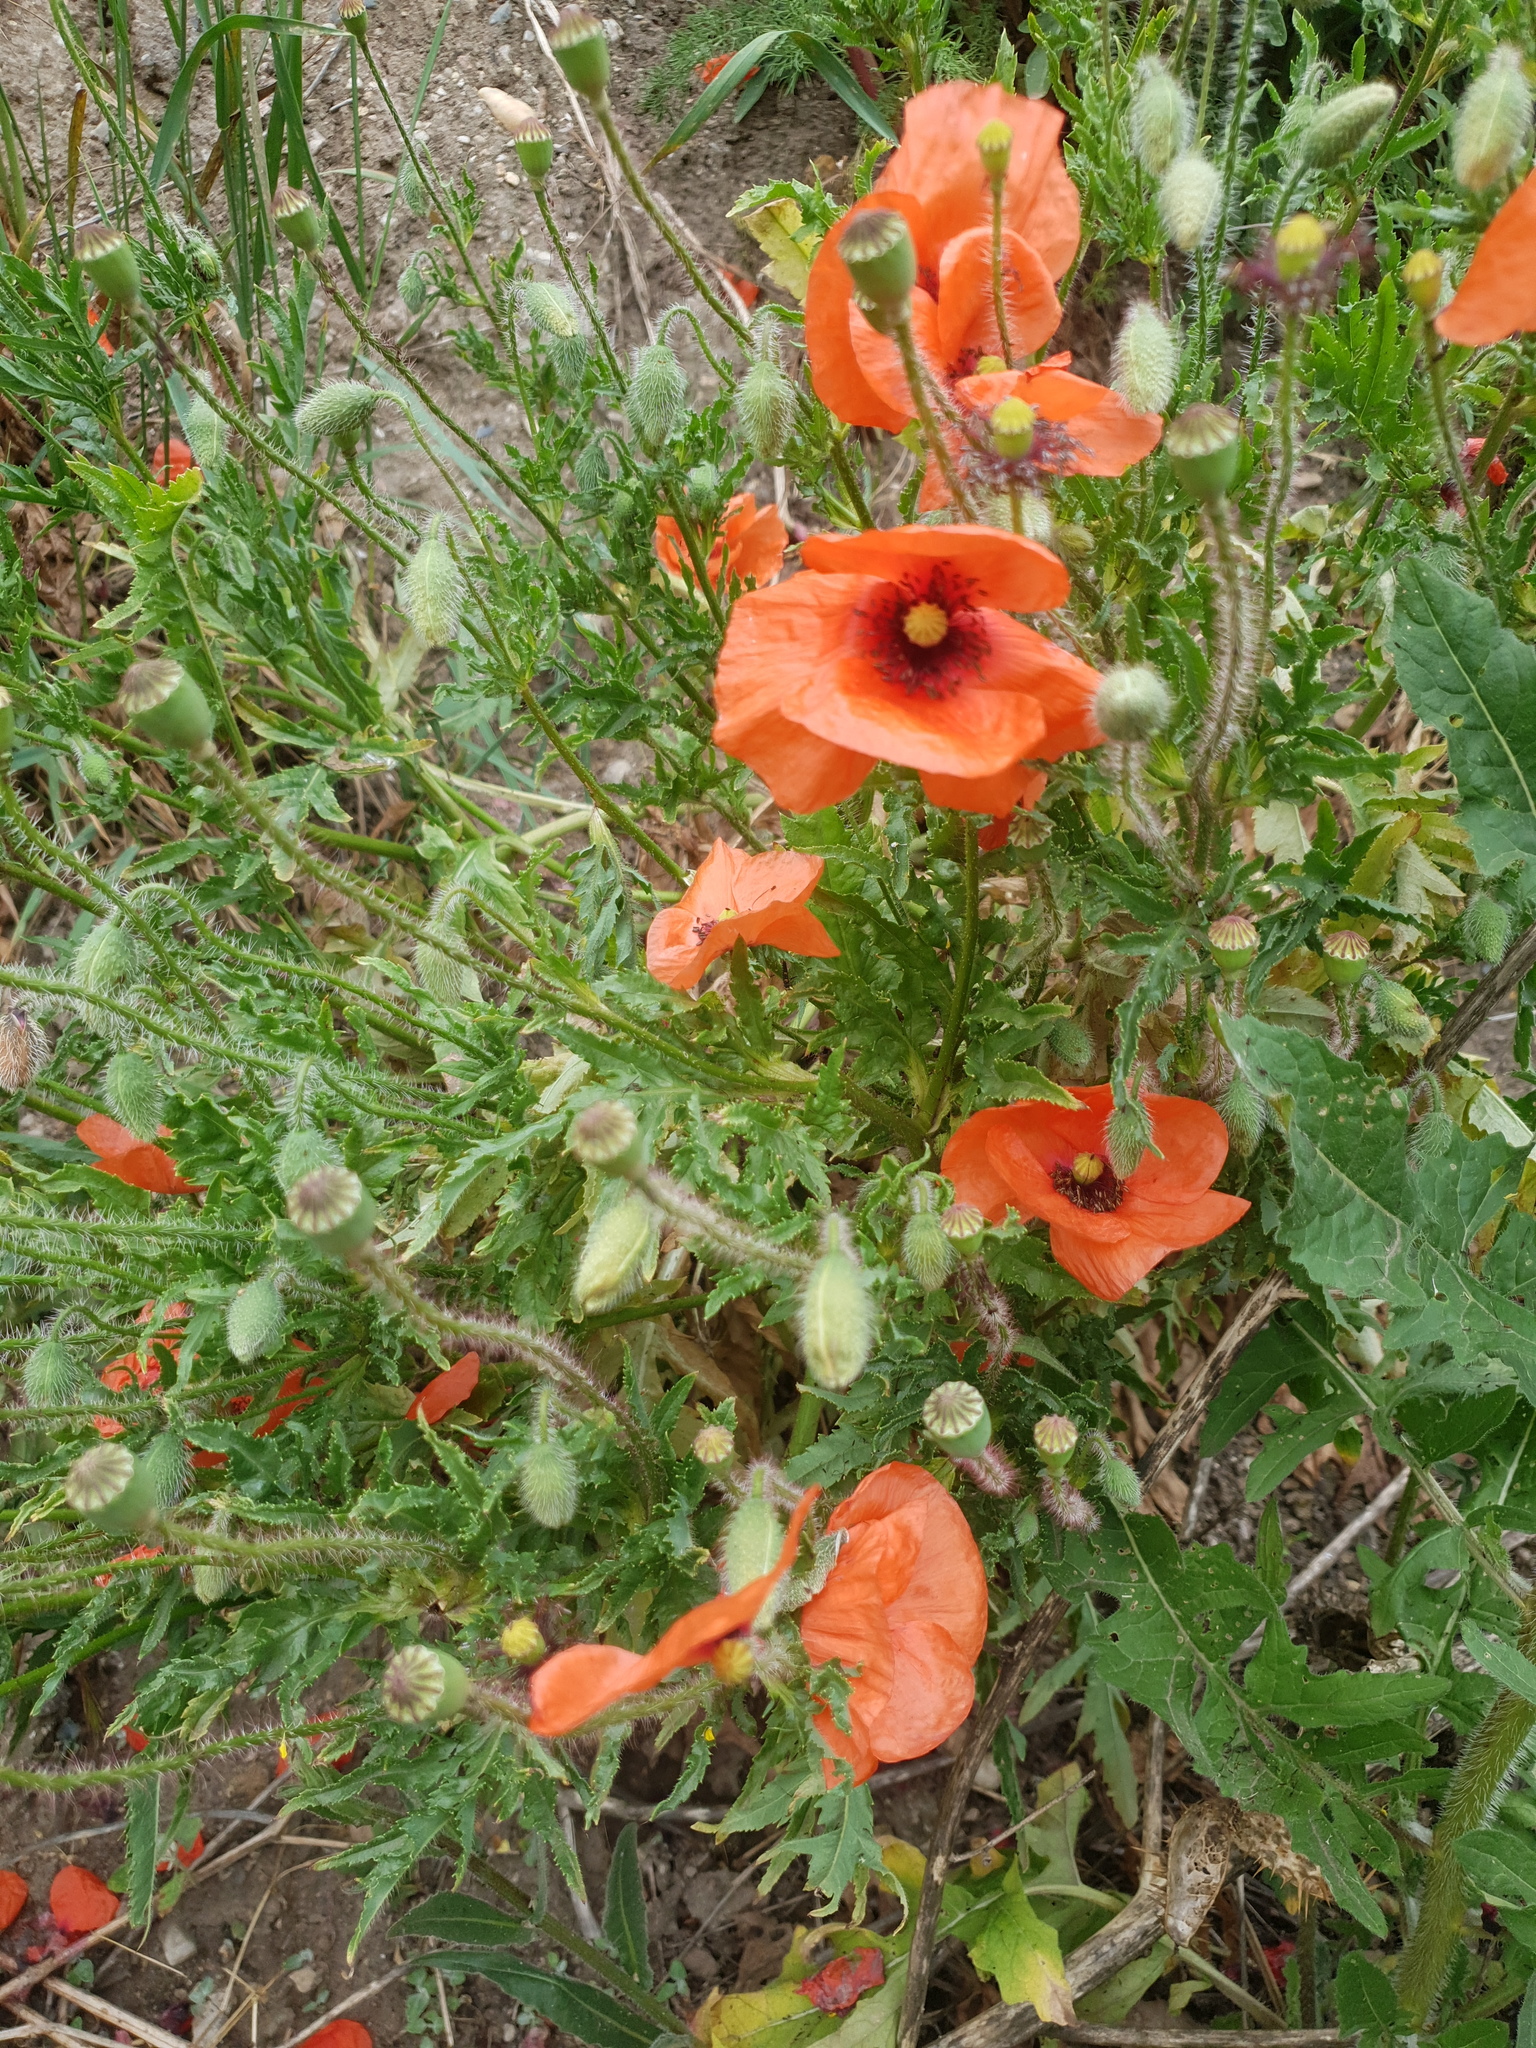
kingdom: Plantae
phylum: Tracheophyta
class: Magnoliopsida
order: Ranunculales
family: Papaveraceae
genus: Papaver
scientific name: Papaver rhoeas
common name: Corn poppy
